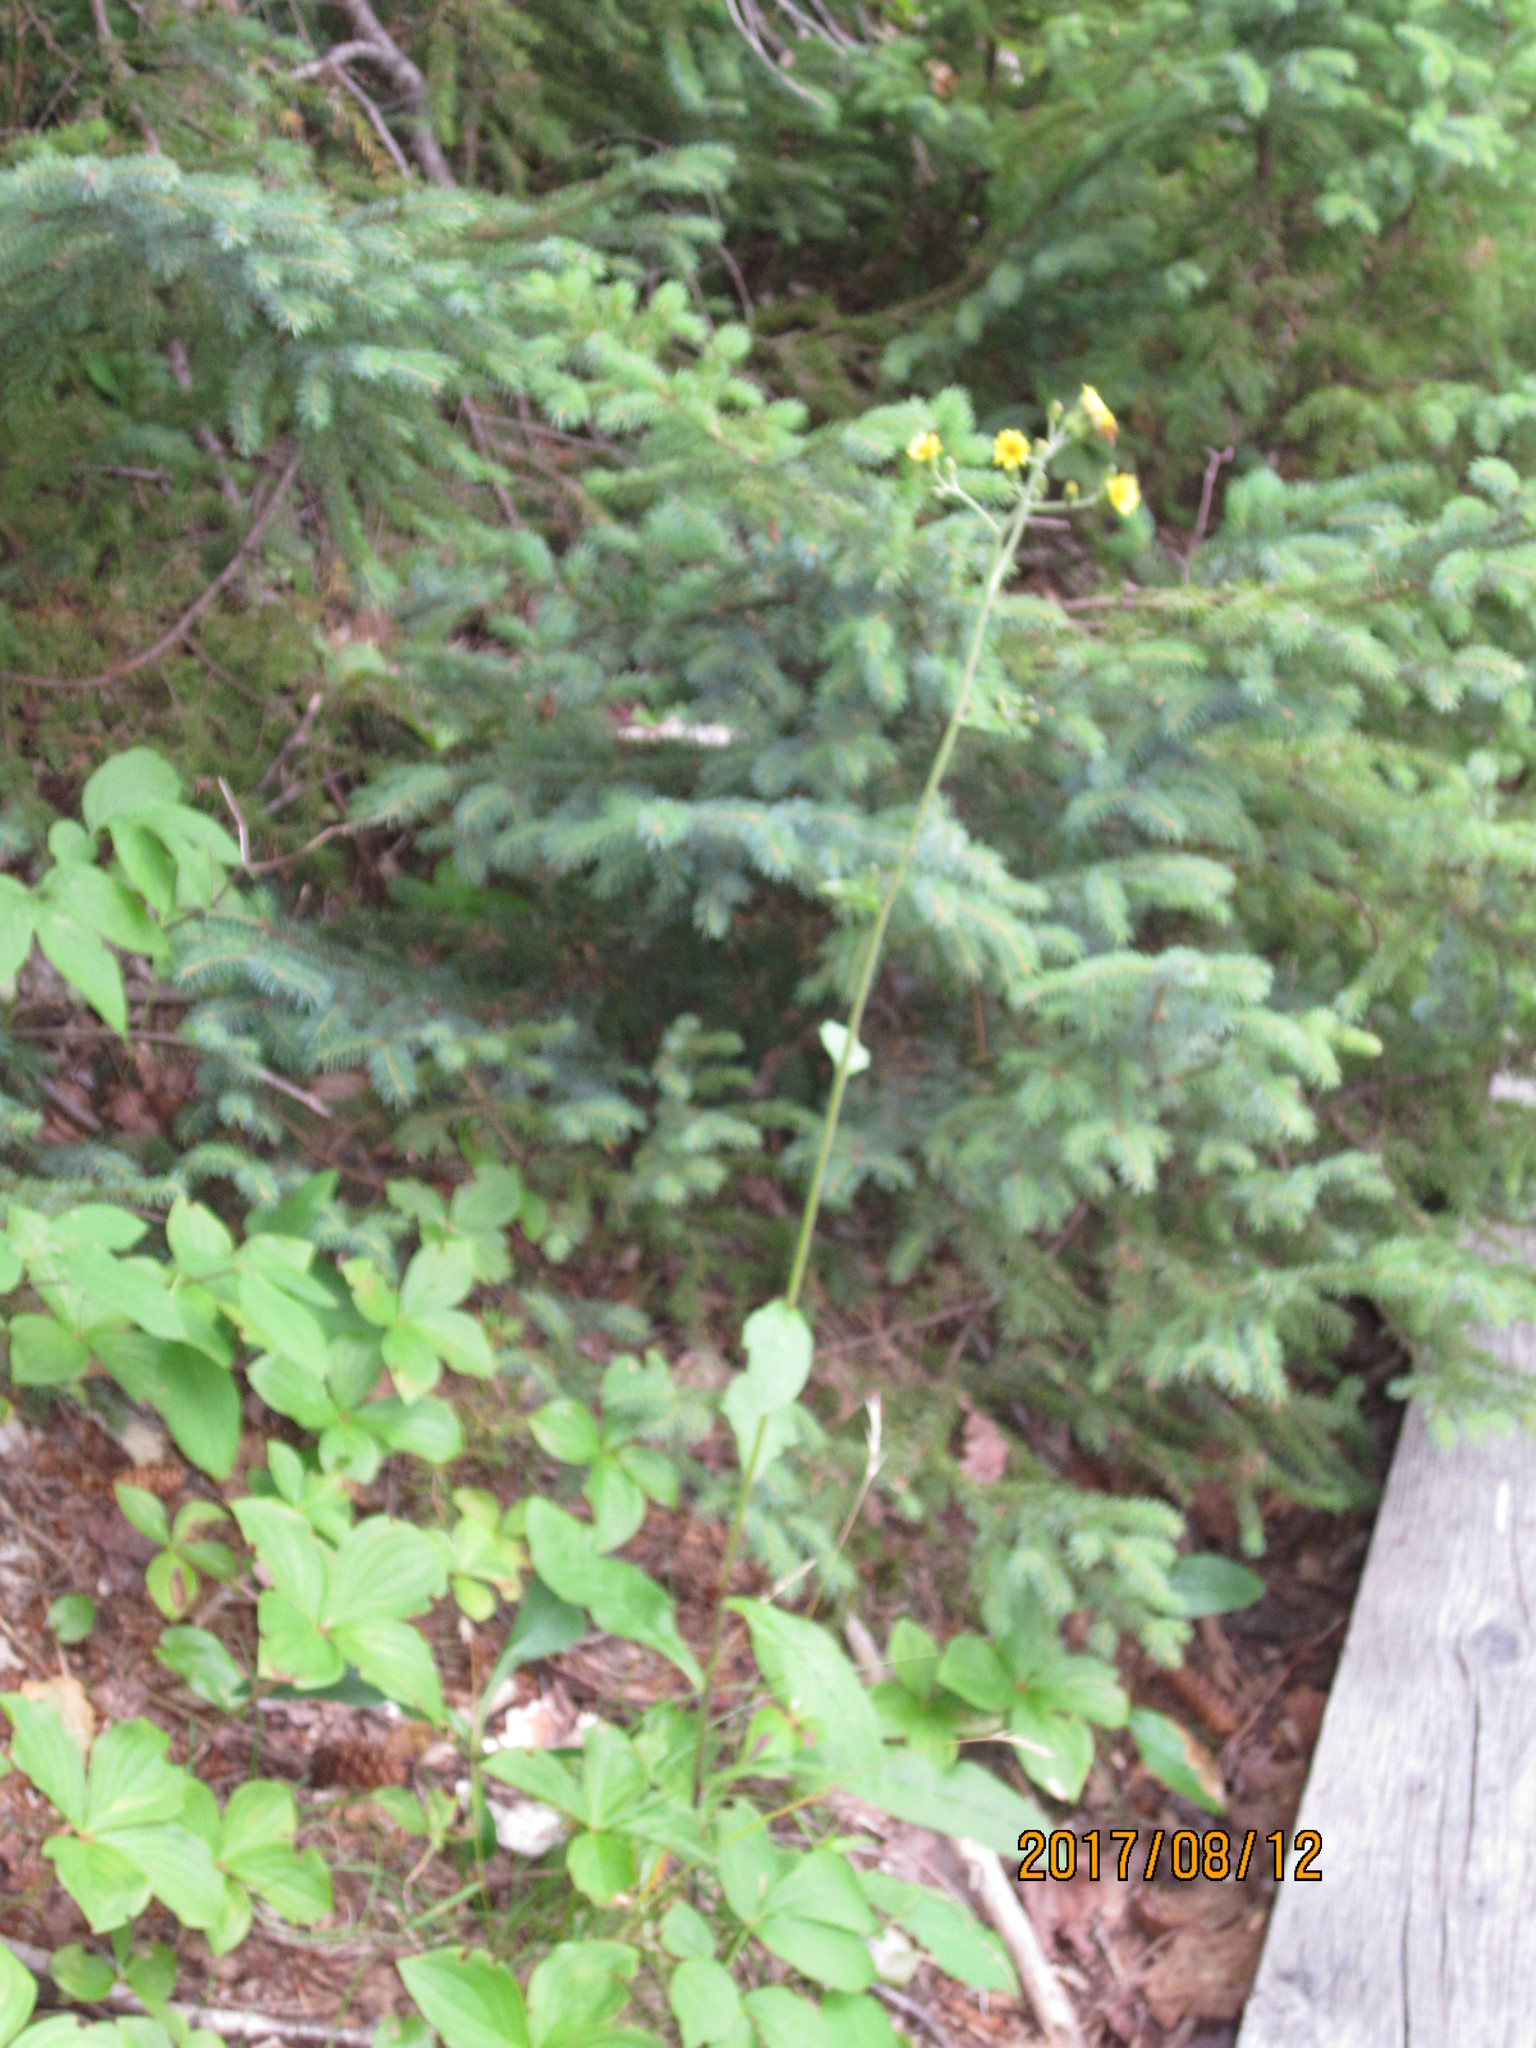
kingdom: Plantae
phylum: Tracheophyta
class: Magnoliopsida
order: Asterales
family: Asteraceae
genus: Hieracium
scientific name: Hieracium scabrum
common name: Rough hawkweed
